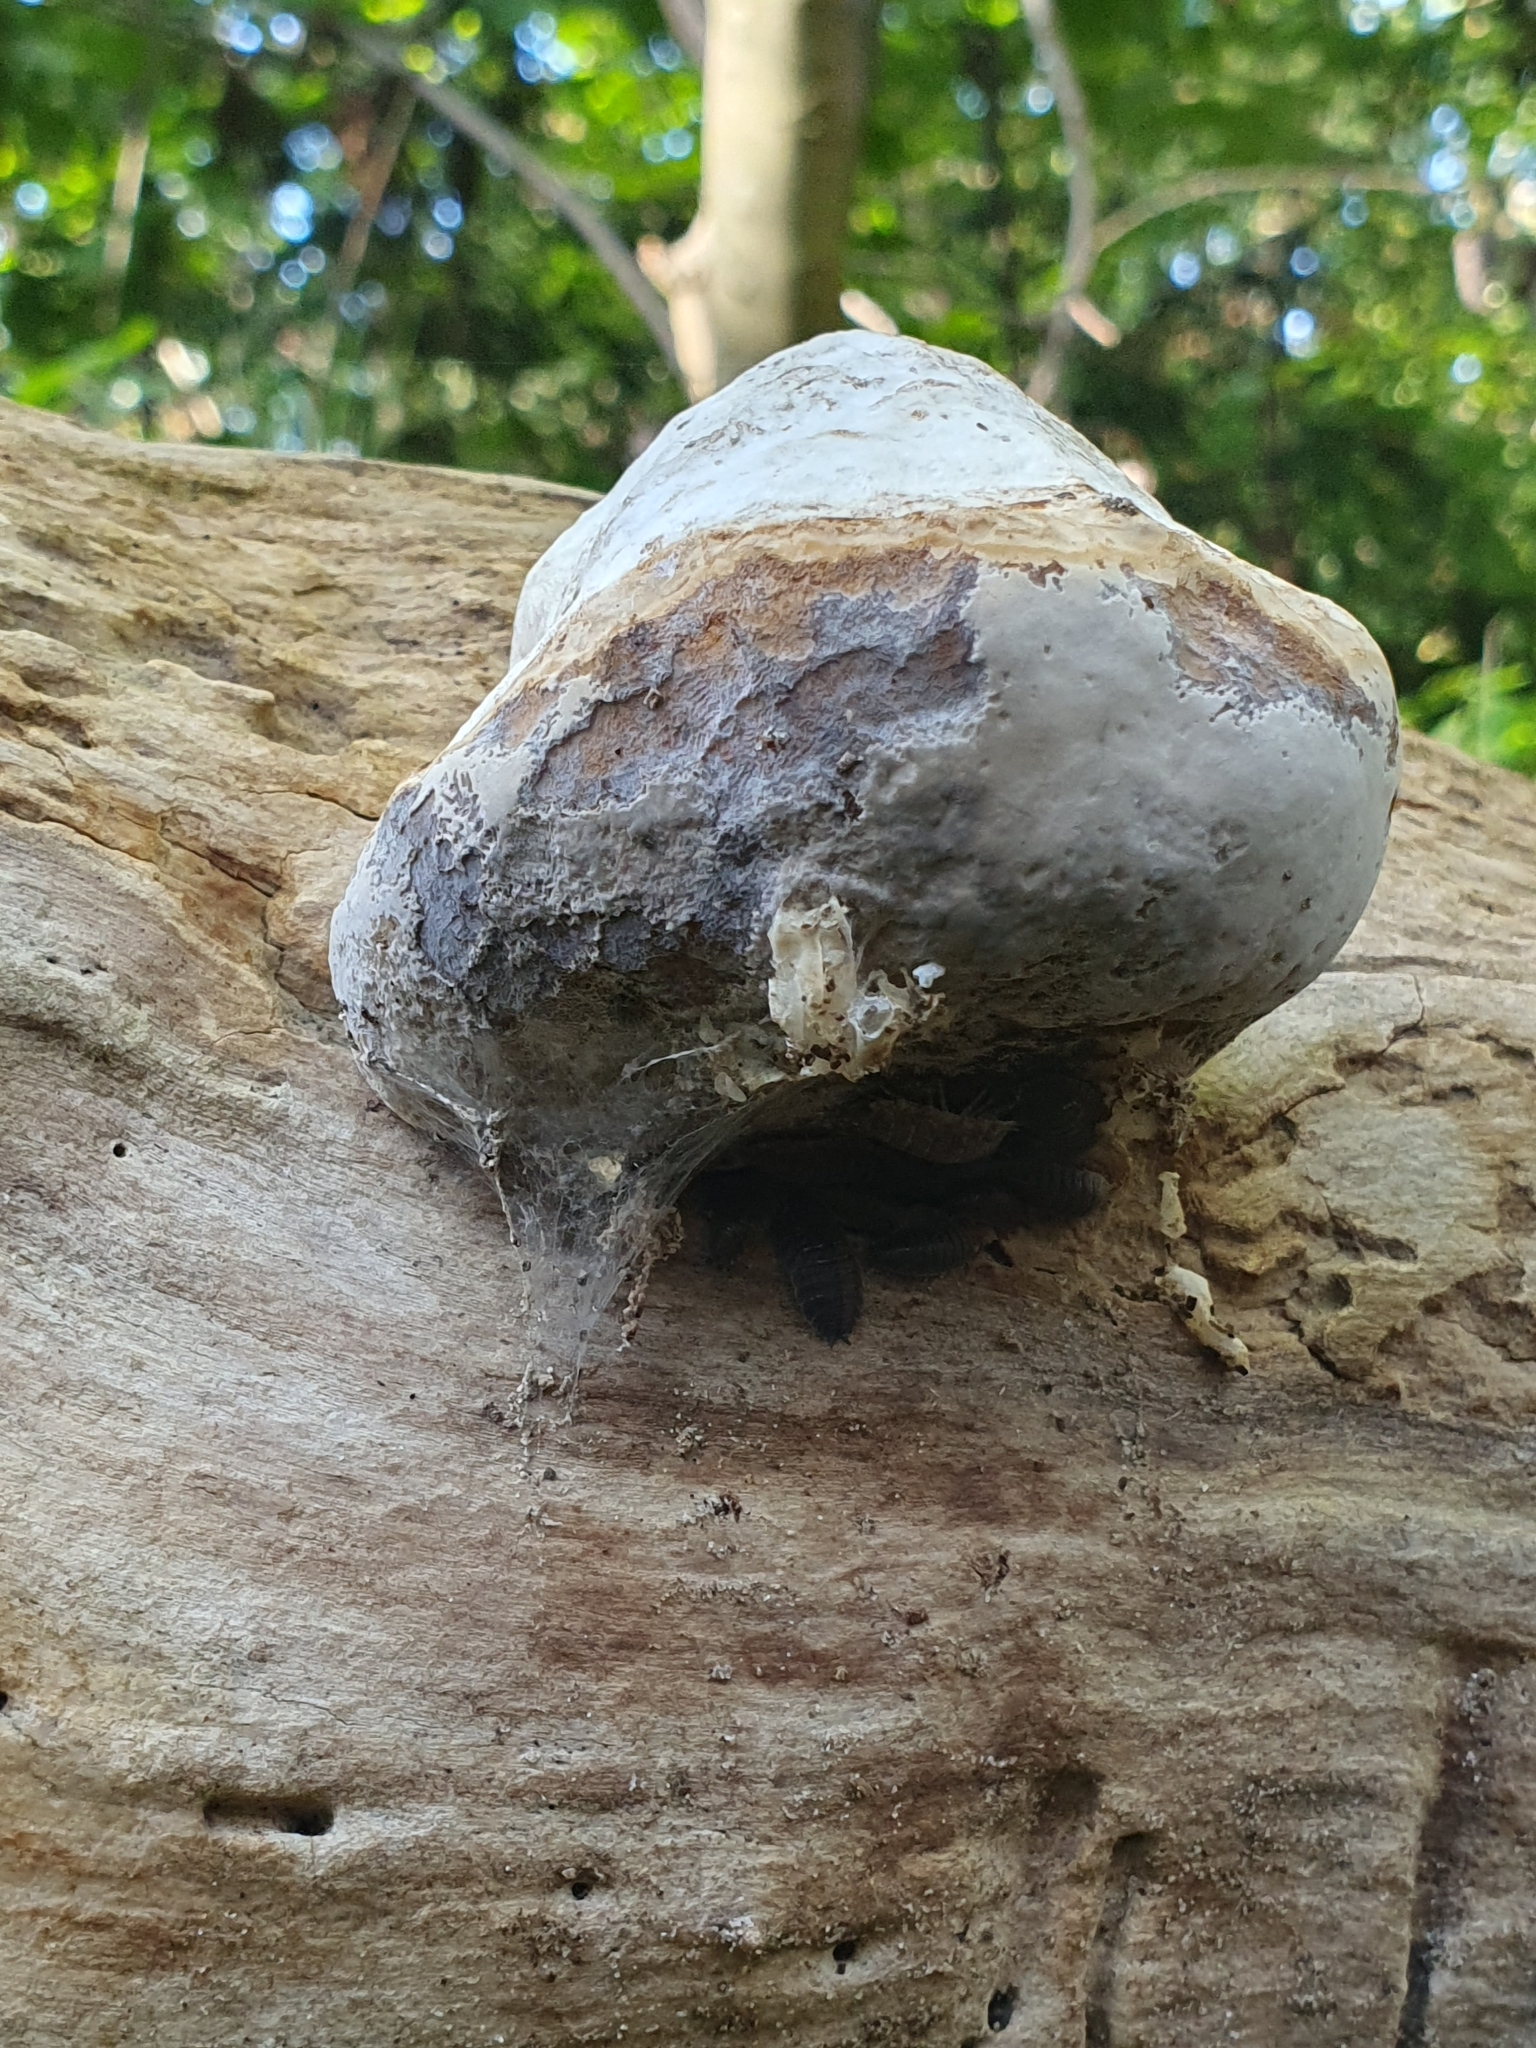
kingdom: Fungi
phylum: Basidiomycota
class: Agaricomycetes
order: Polyporales
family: Polyporaceae
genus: Fomes
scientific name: Fomes fomentarius
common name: Hoof fungus
